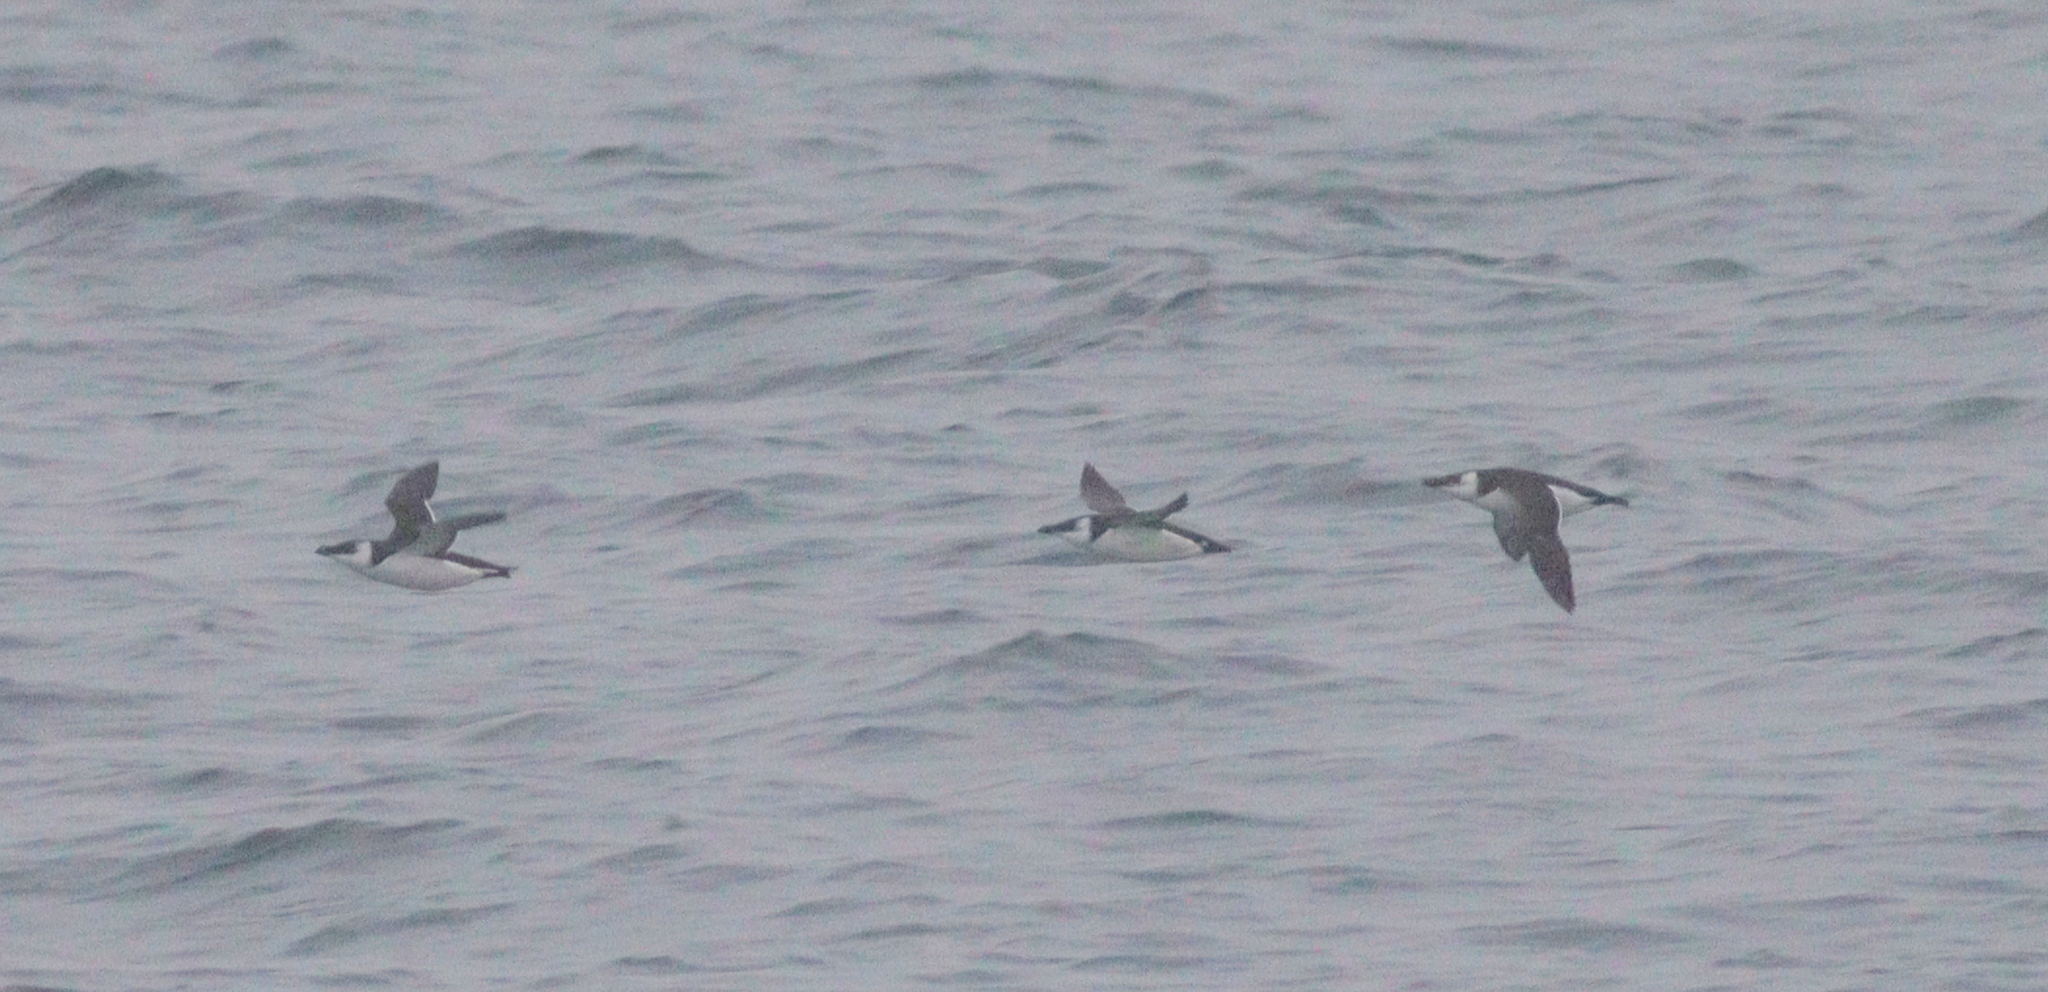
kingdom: Animalia
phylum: Chordata
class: Aves
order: Charadriiformes
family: Alcidae
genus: Alca
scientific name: Alca torda
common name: Razorbill
